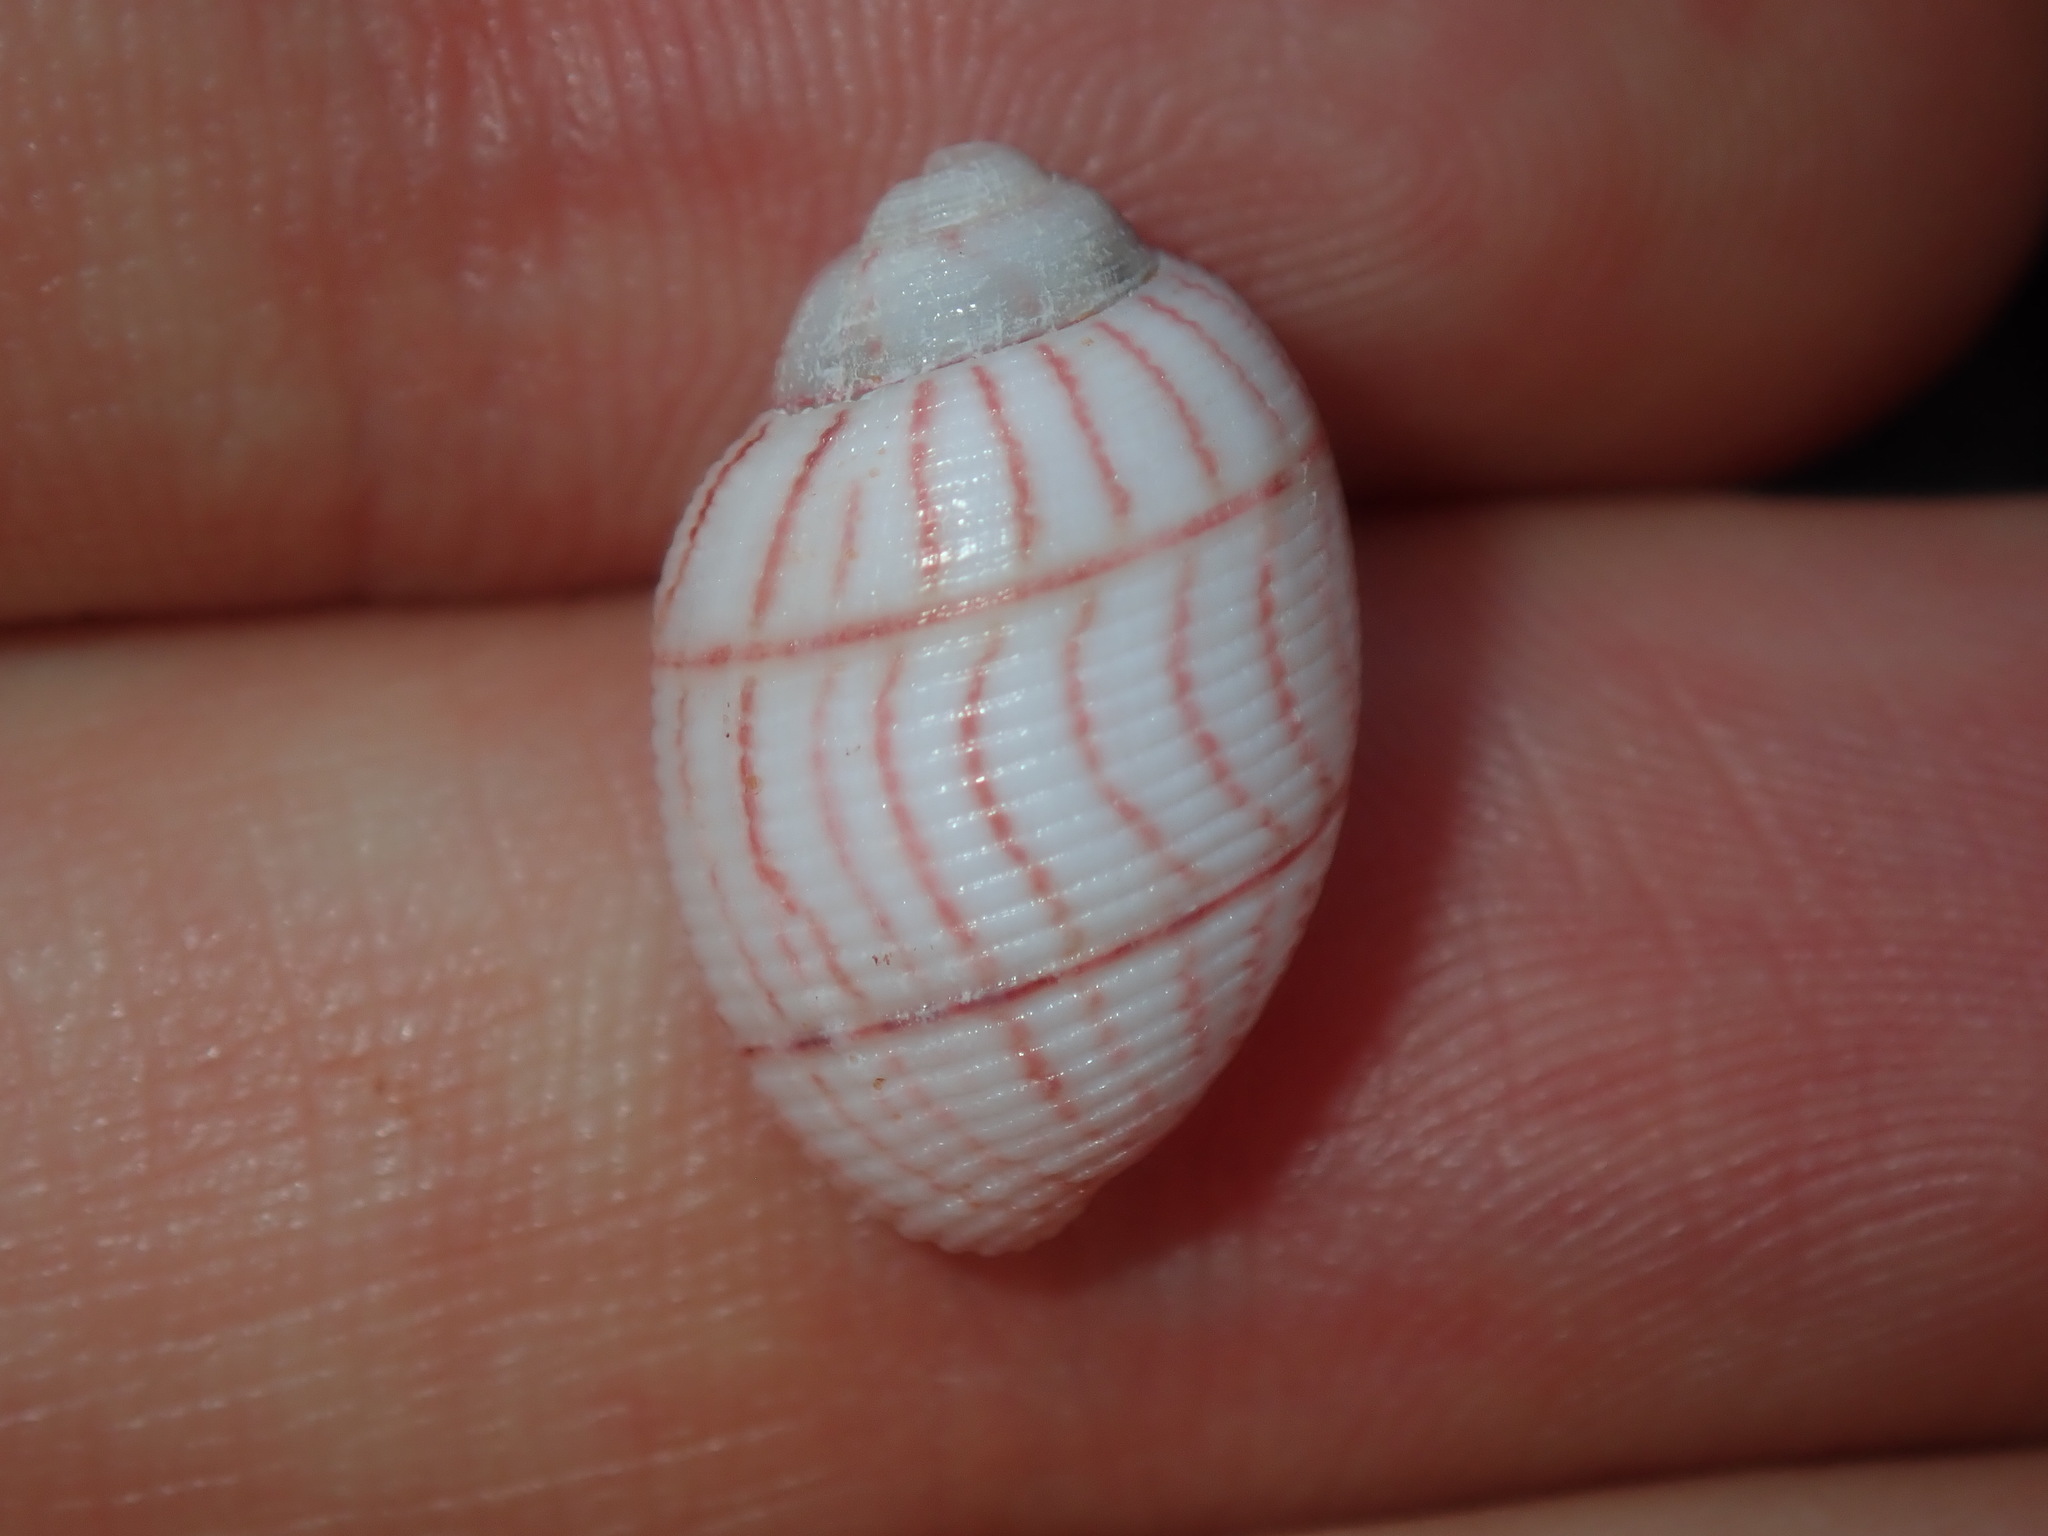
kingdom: Animalia
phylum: Mollusca
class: Gastropoda
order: Cephalaspidea
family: Aplustridae
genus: Bullina
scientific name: Bullina lineata
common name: Lined bubble snail
